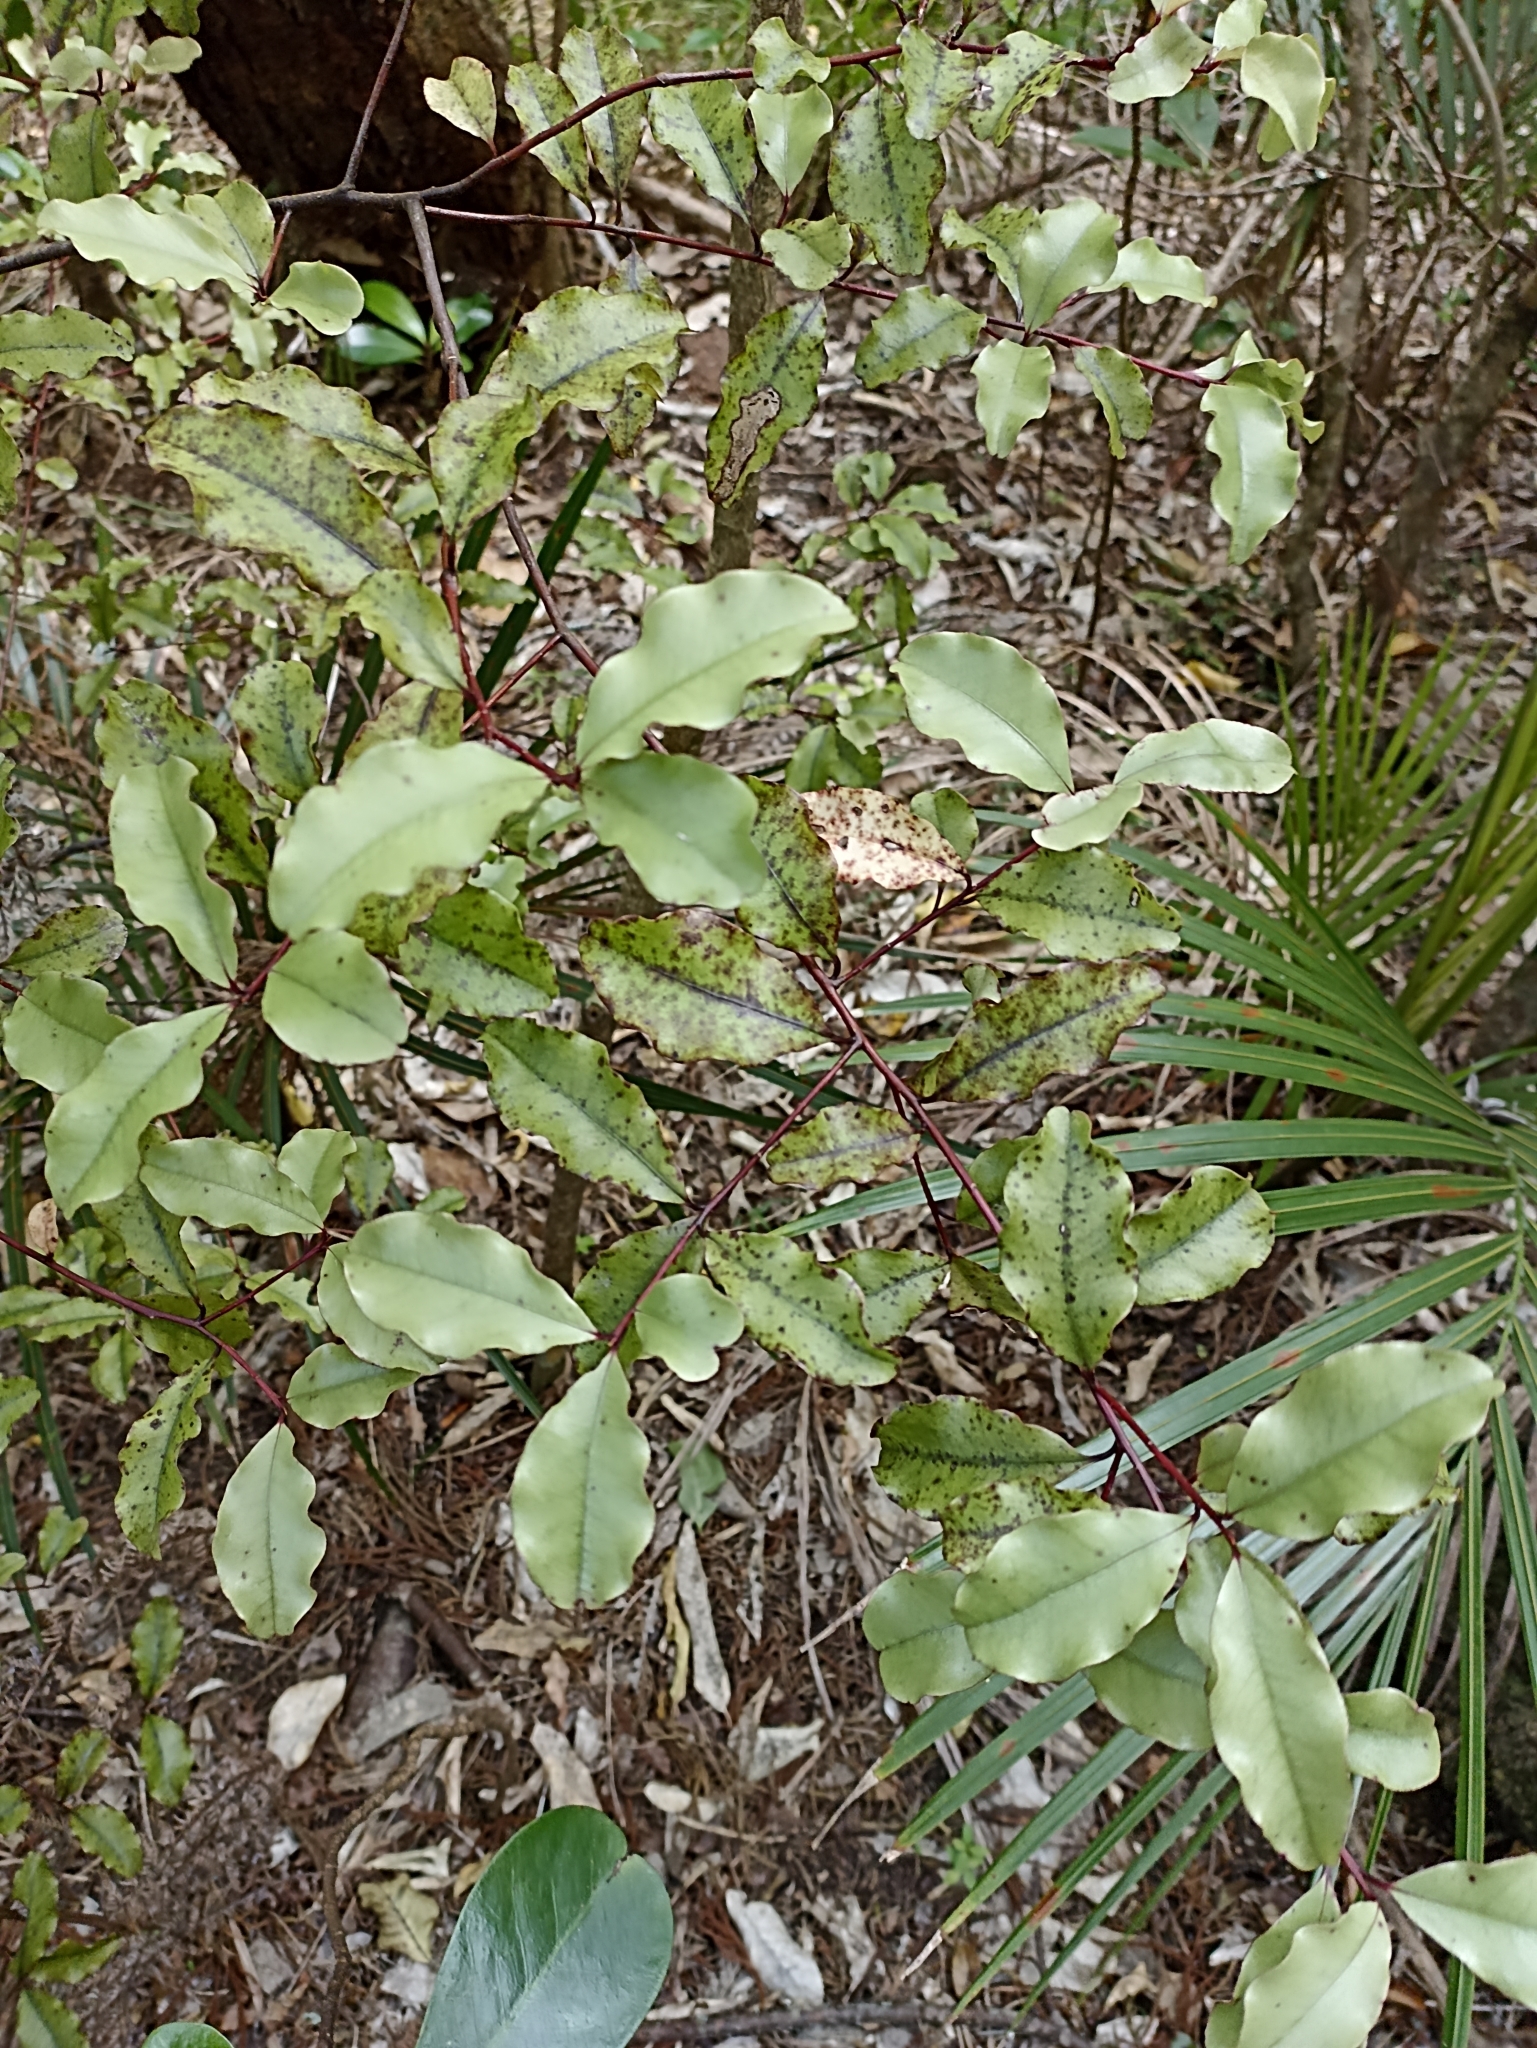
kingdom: Plantae
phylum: Tracheophyta
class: Magnoliopsida
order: Ericales
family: Primulaceae
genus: Myrsine
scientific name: Myrsine australis
